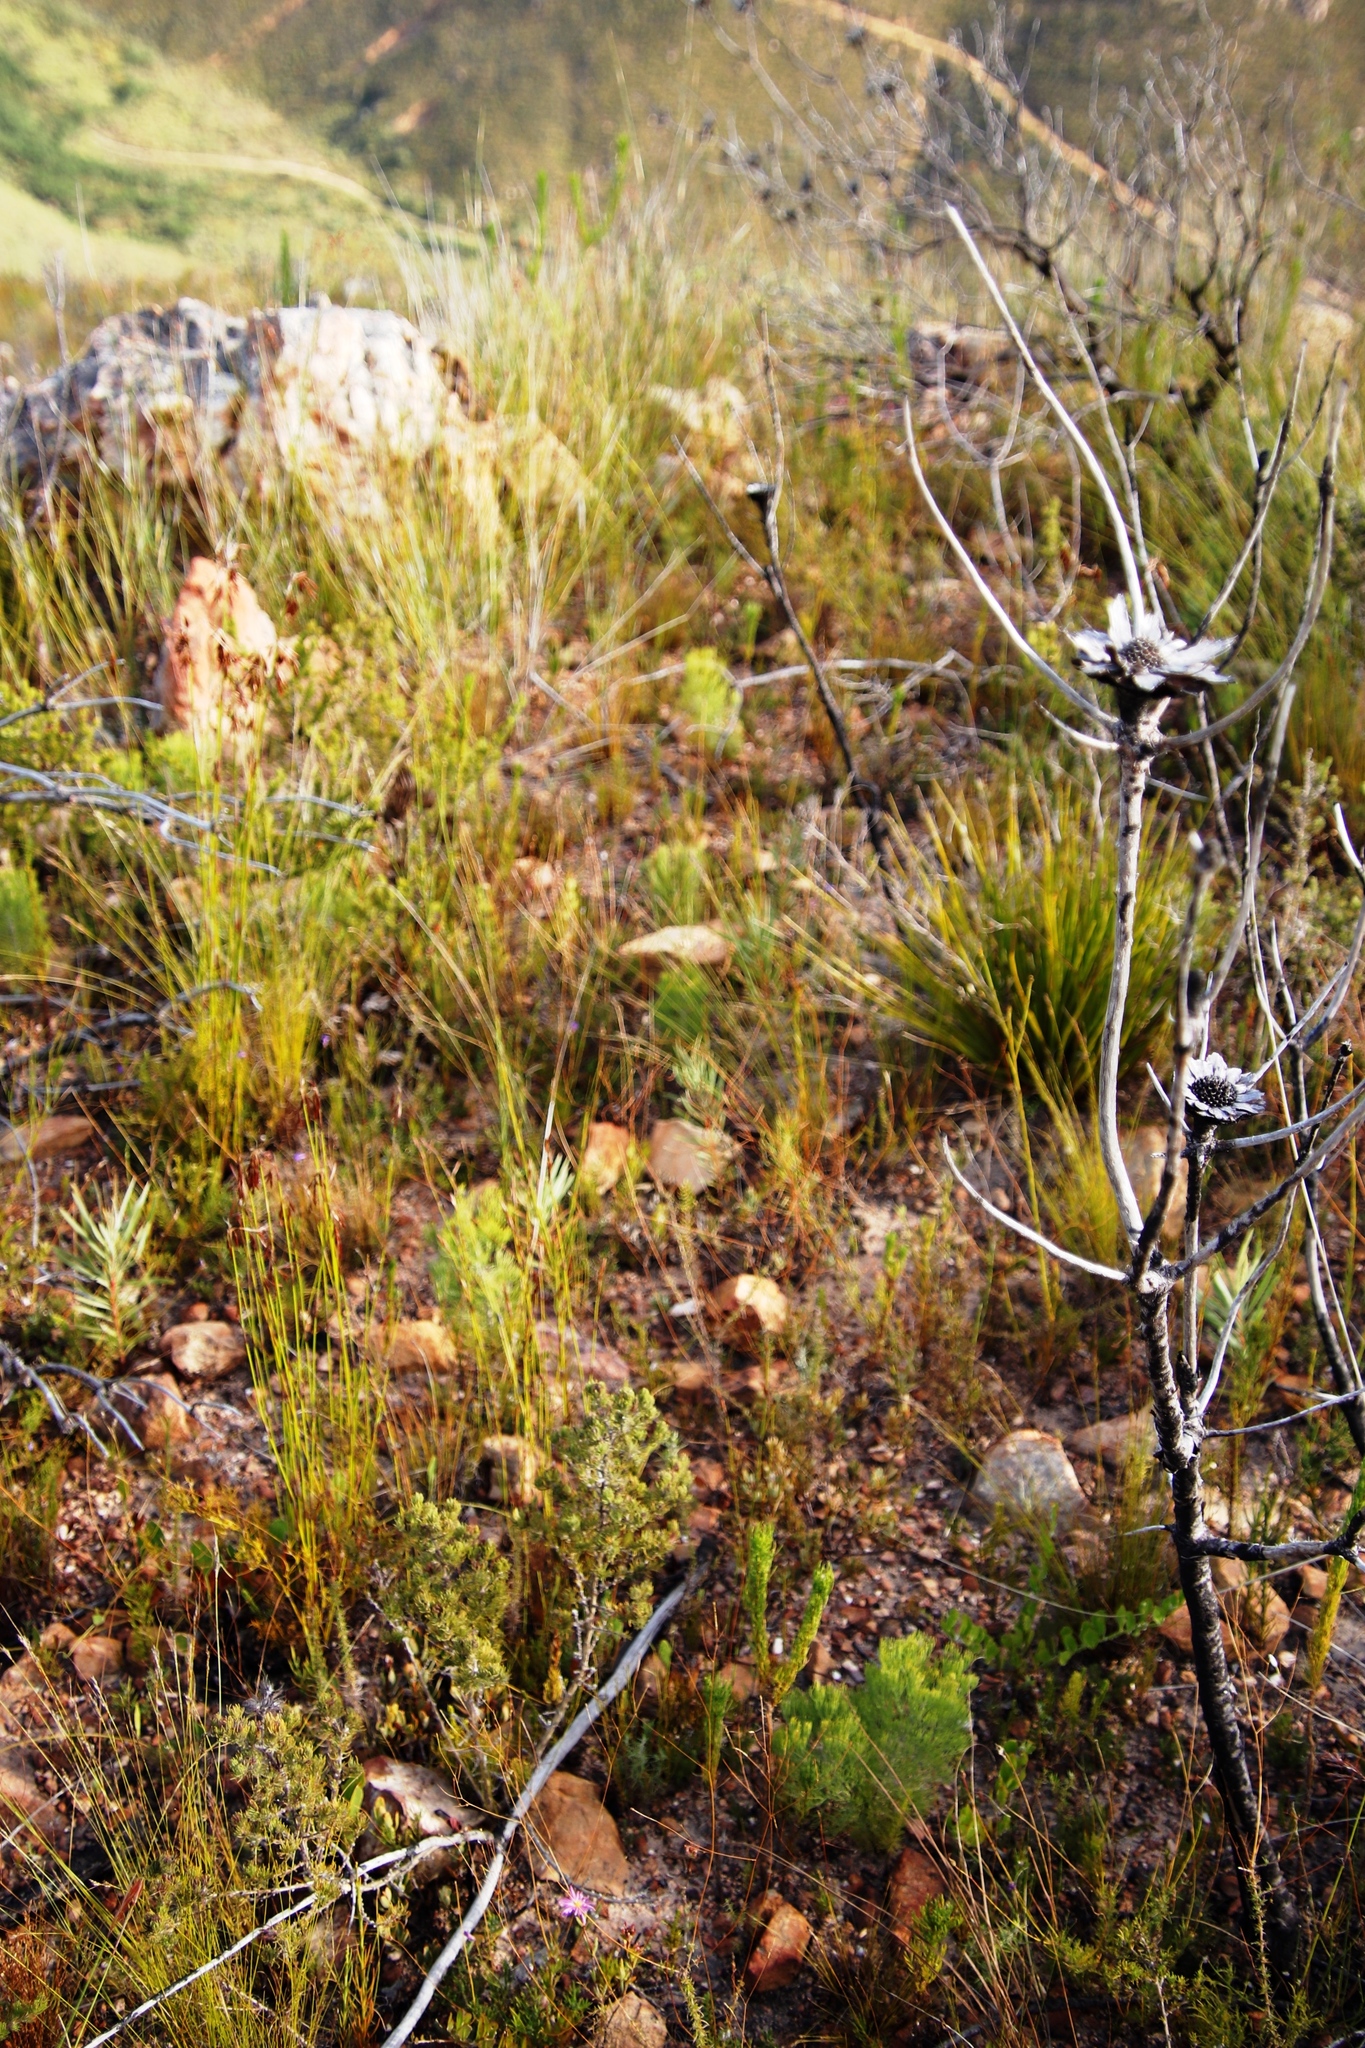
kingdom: Plantae
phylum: Tracheophyta
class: Magnoliopsida
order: Proteales
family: Proteaceae
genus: Protea
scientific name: Protea repens
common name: Sugarbush
